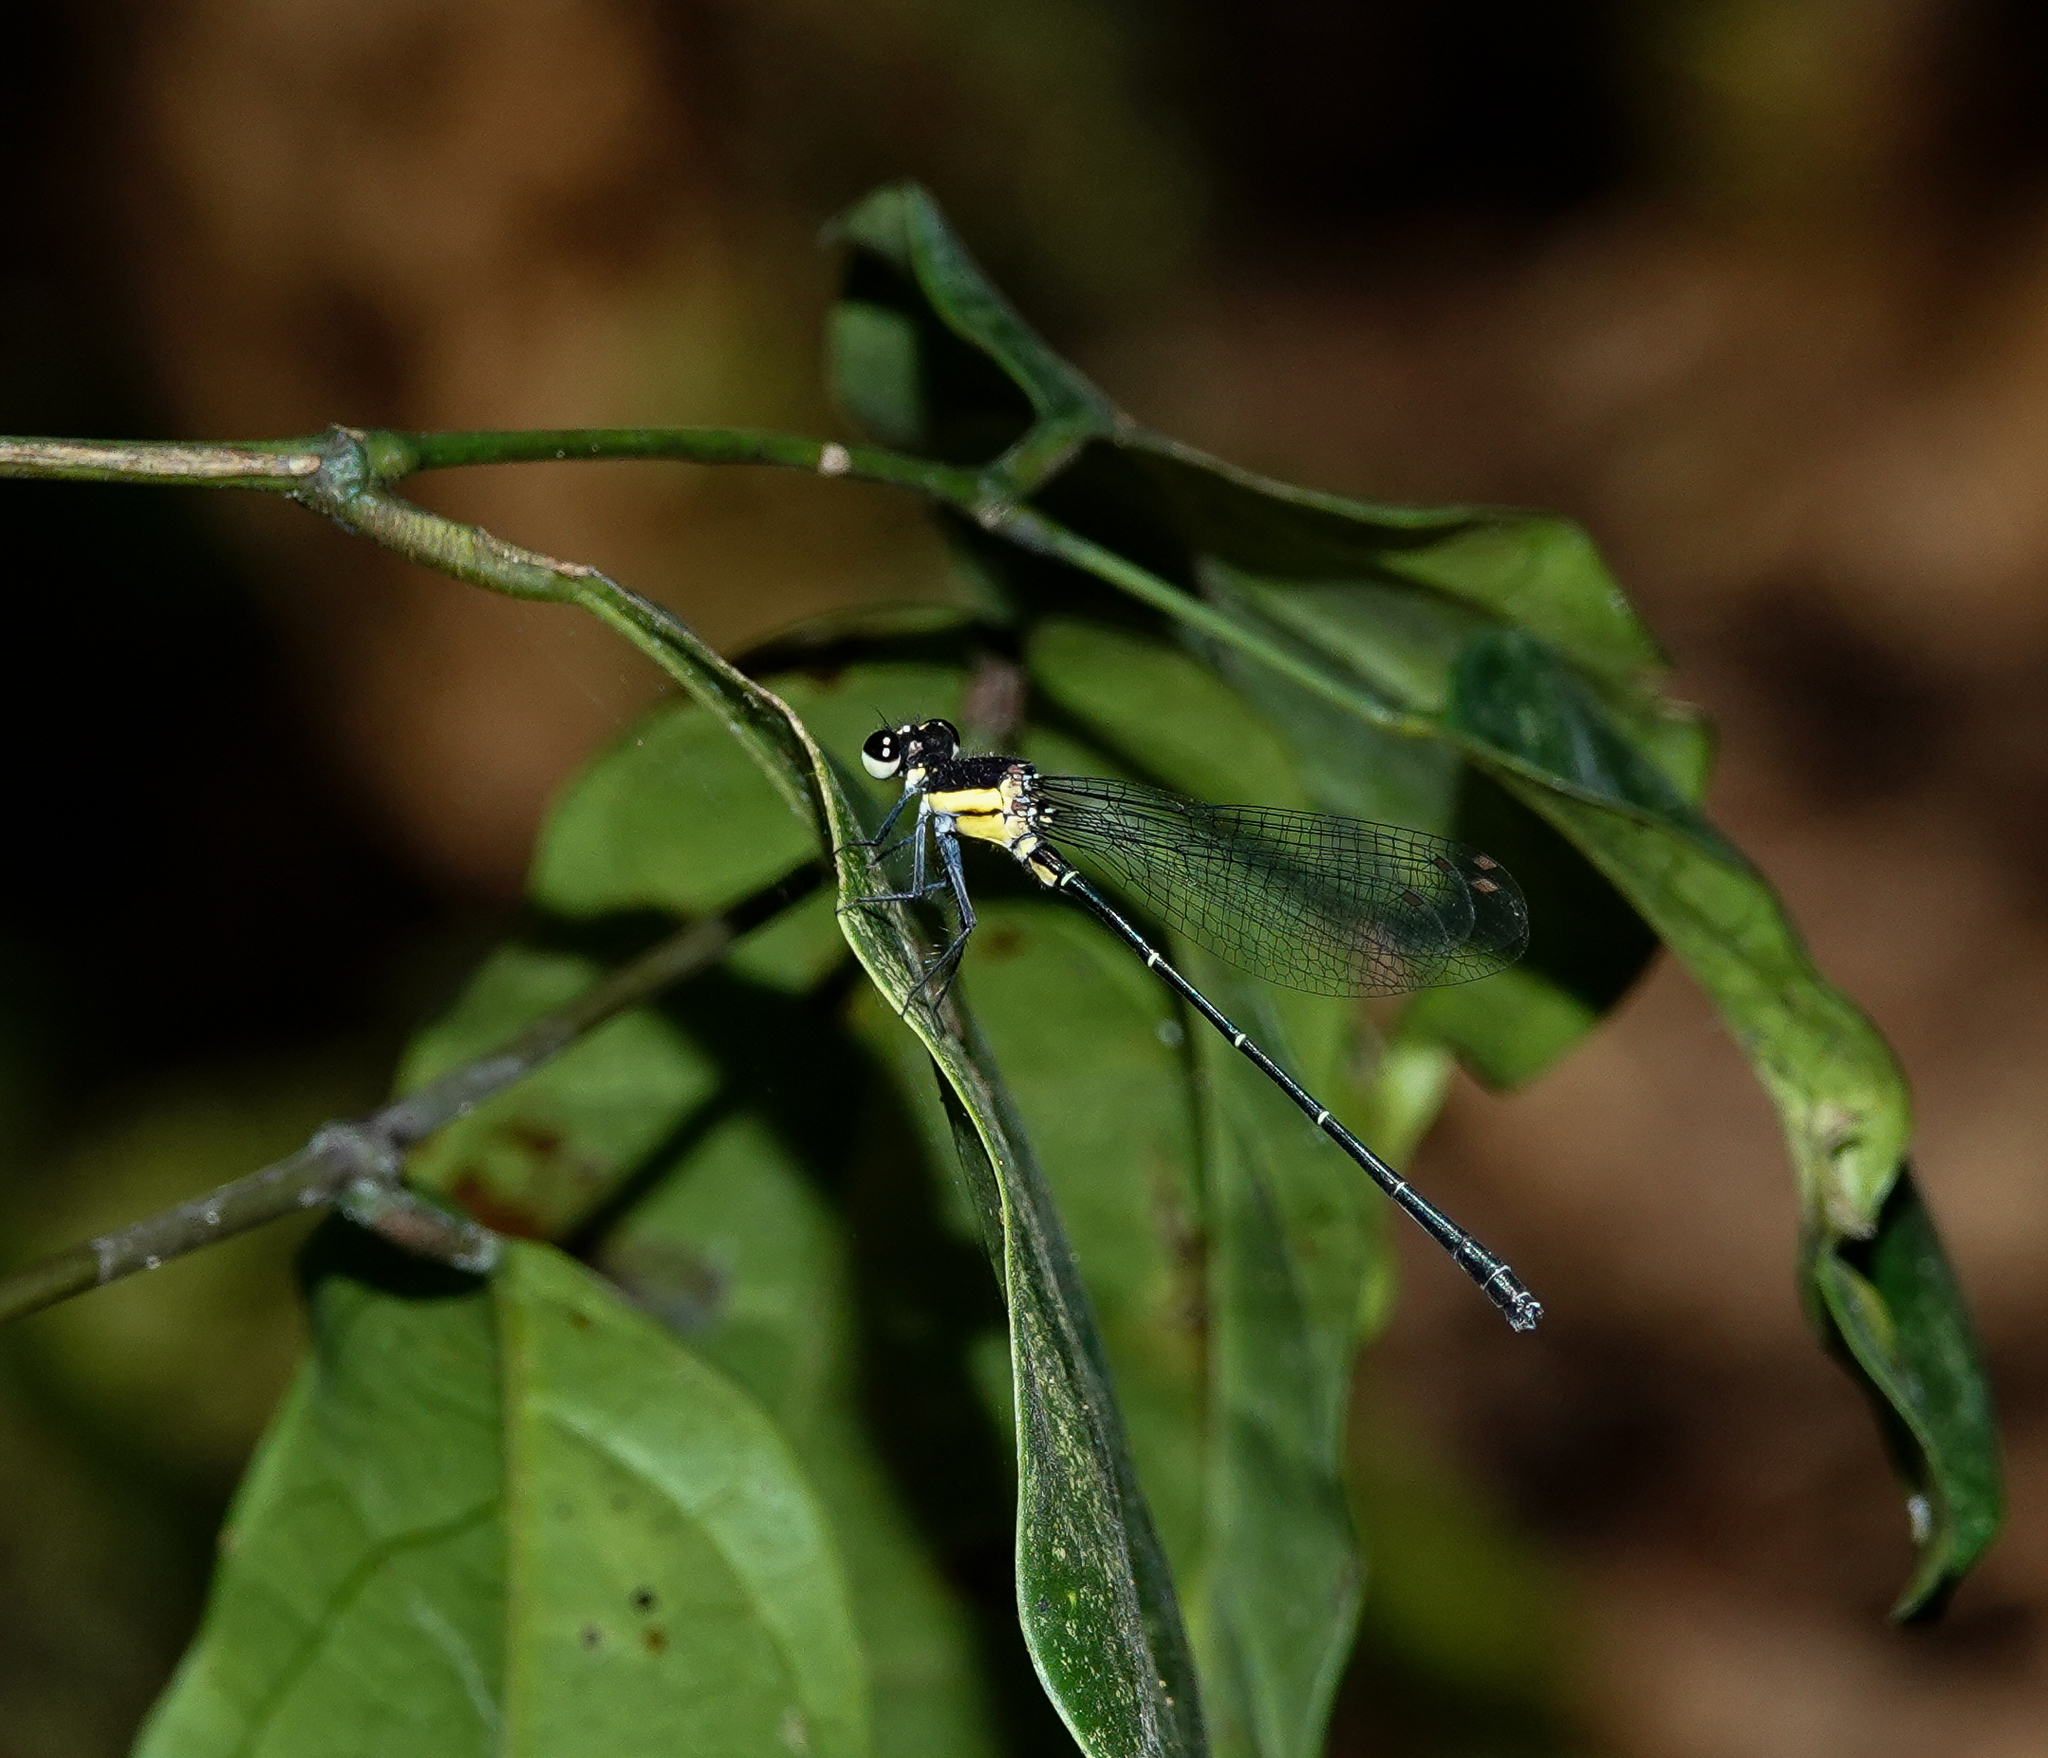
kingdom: Animalia
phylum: Arthropoda
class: Insecta
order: Odonata
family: Platycnemididae
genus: Onychargia
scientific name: Onychargia atrocyana
